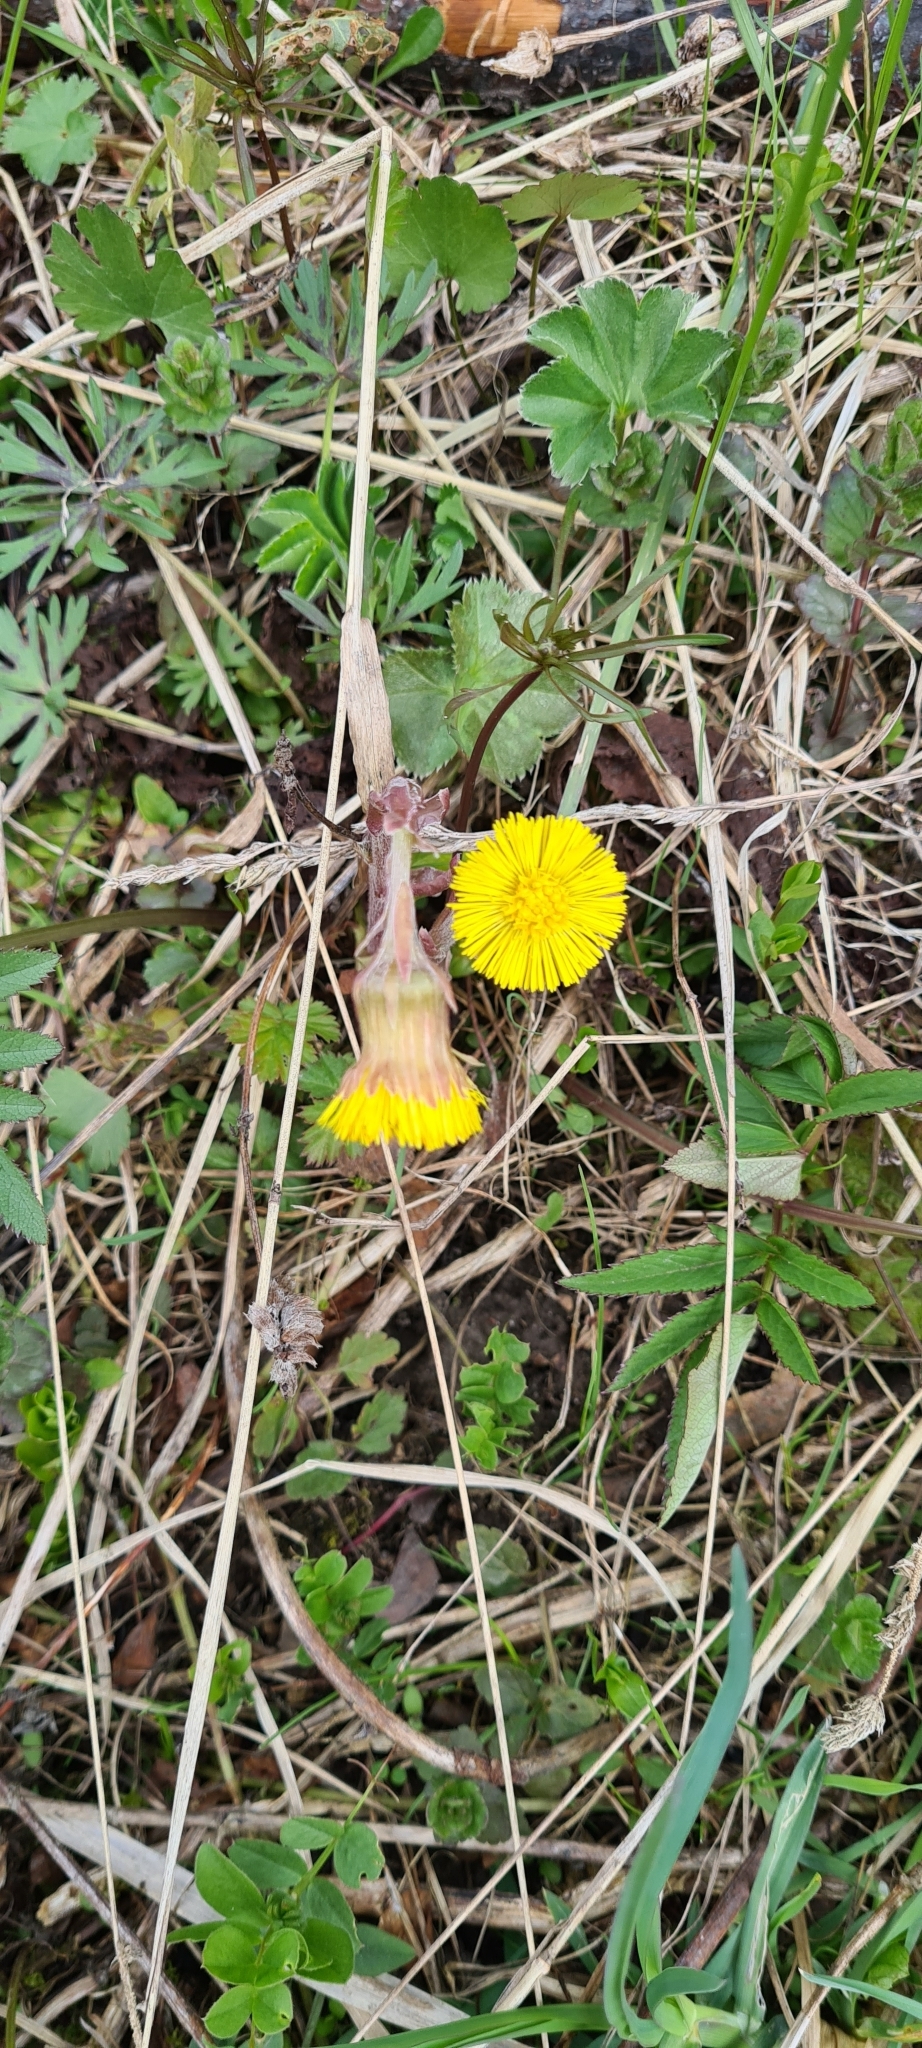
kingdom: Plantae
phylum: Tracheophyta
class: Magnoliopsida
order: Asterales
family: Asteraceae
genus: Tussilago
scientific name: Tussilago farfara
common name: Coltsfoot
